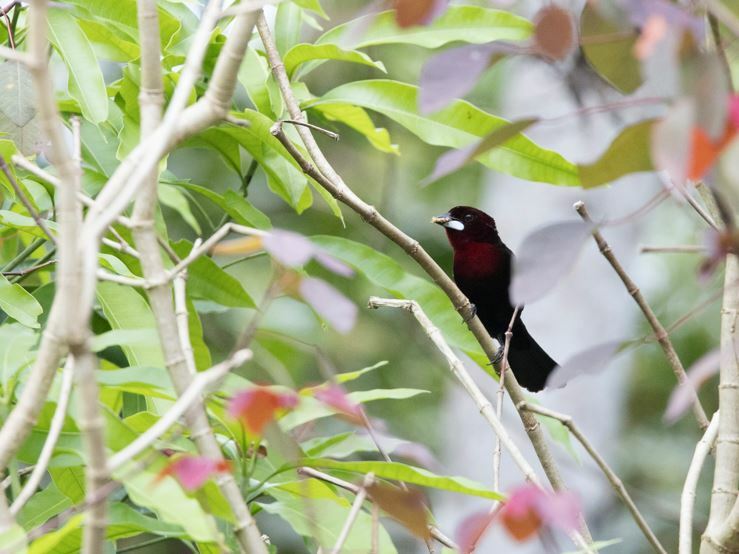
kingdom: Animalia
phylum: Chordata
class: Aves
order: Passeriformes
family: Thraupidae
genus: Ramphocelus
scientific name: Ramphocelus carbo
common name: Silver-beaked tanager
